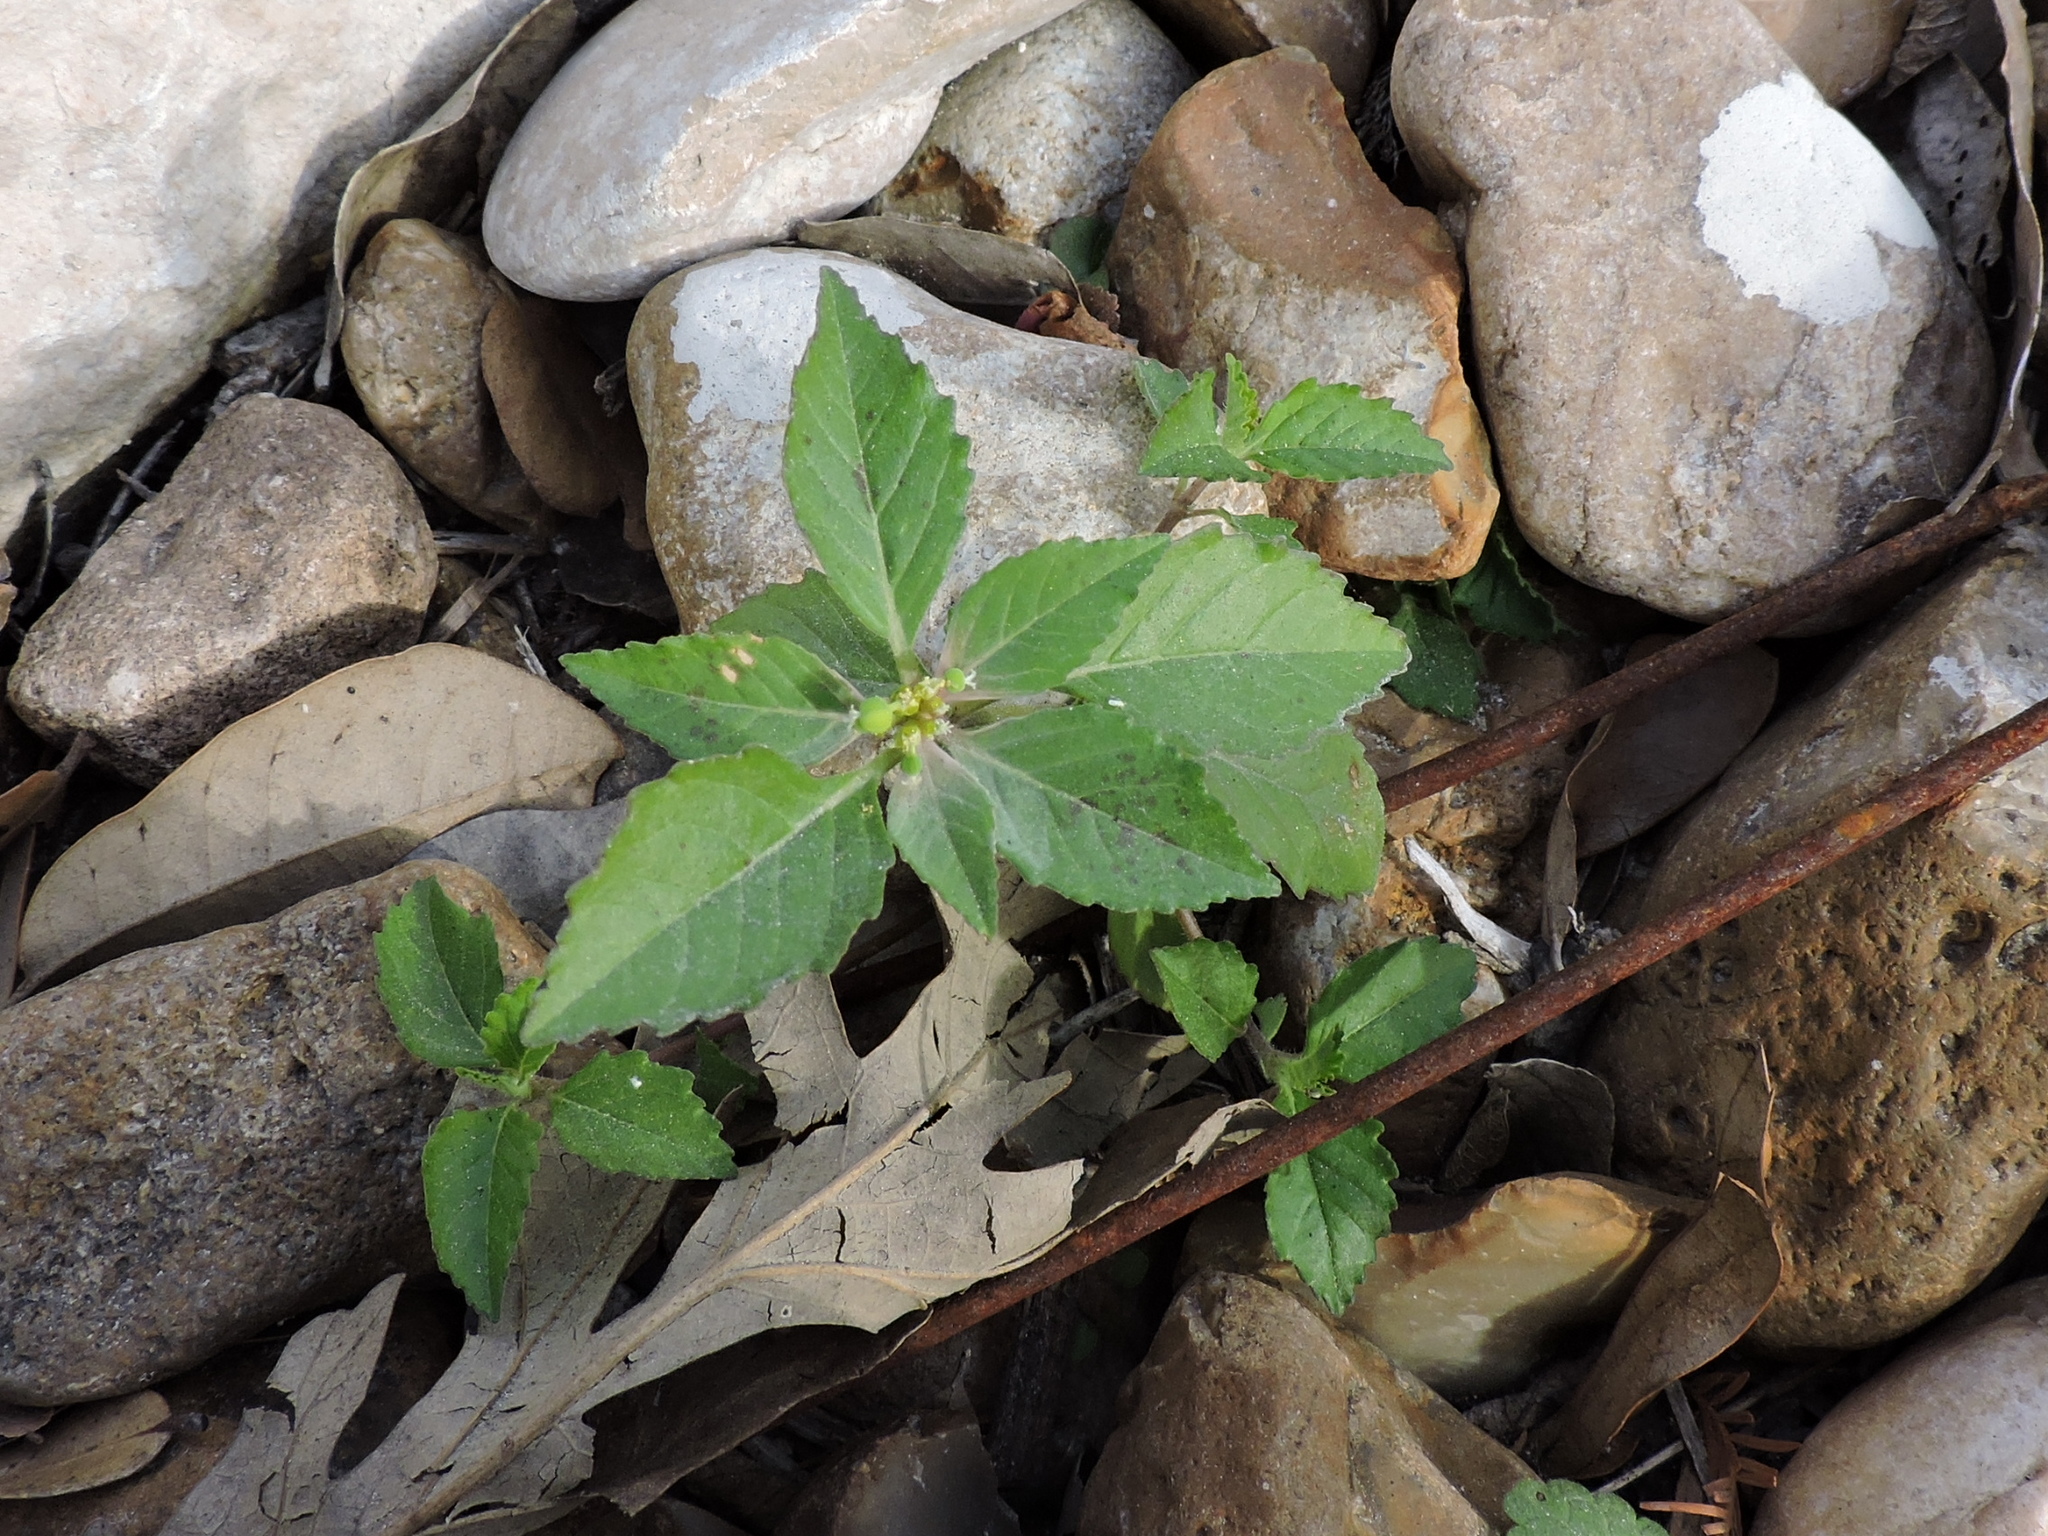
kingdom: Plantae
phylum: Tracheophyta
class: Magnoliopsida
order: Malpighiales
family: Euphorbiaceae
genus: Euphorbia
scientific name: Euphorbia dentata
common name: Dentate spurge
